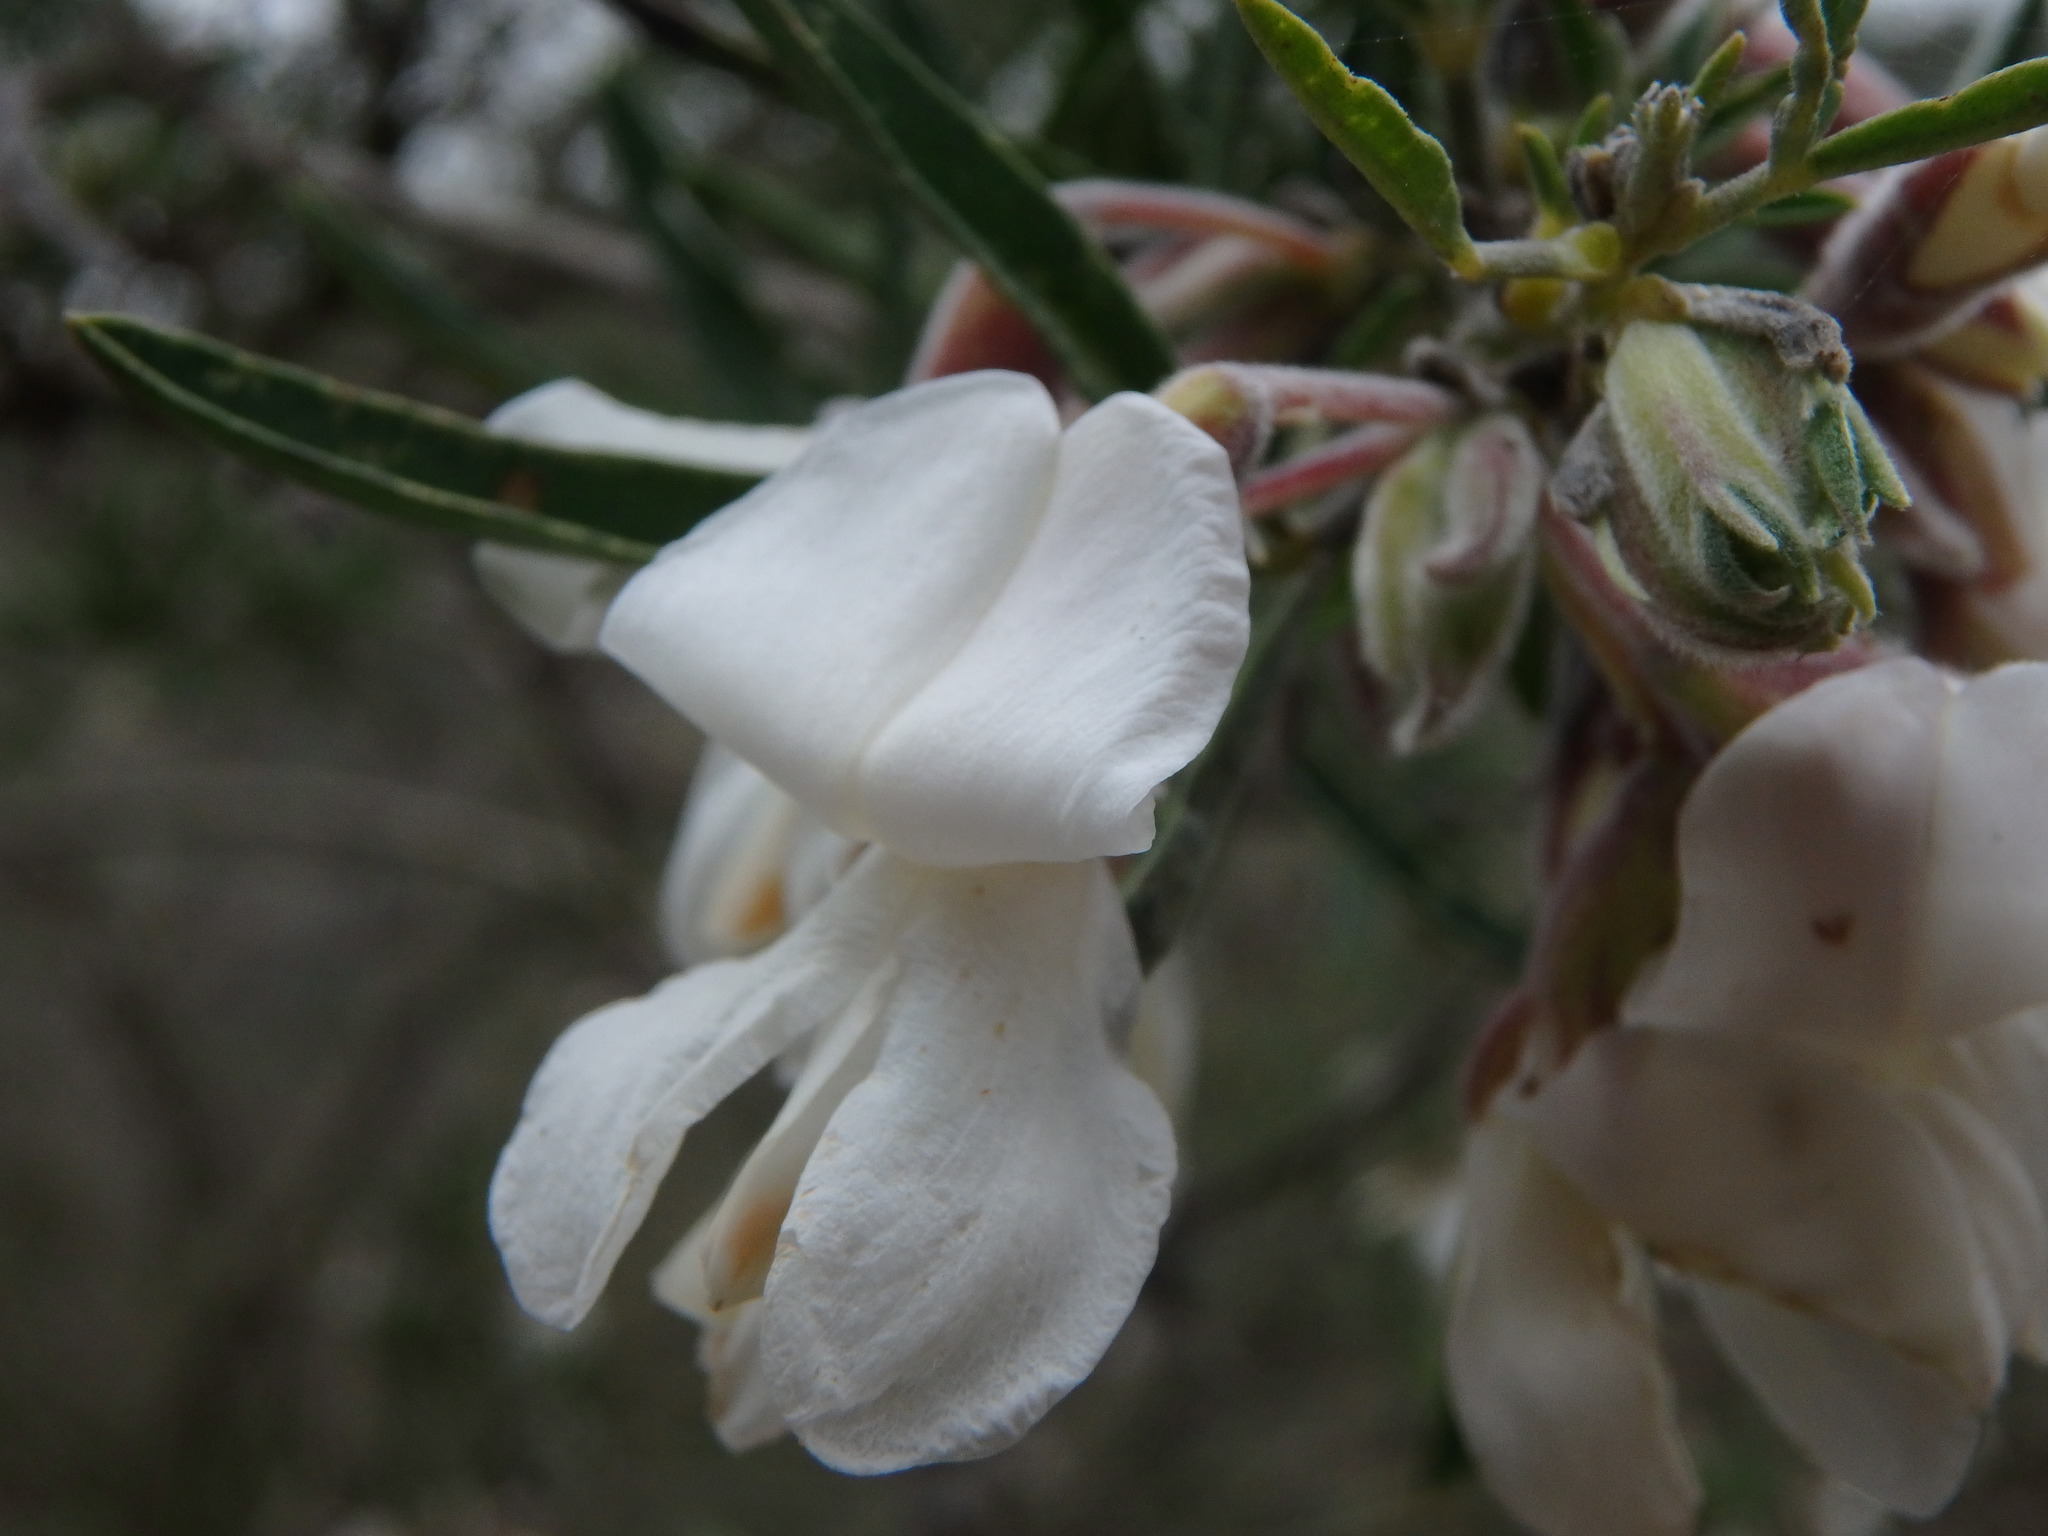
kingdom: Plantae
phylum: Tracheophyta
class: Magnoliopsida
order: Fabales
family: Fabaceae
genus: Chamaecytisus
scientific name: Chamaecytisus prolifer
